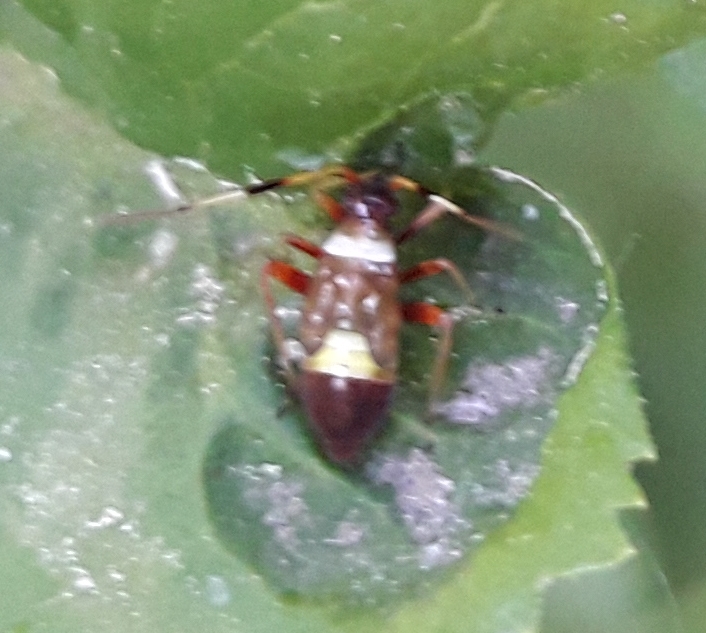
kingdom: Animalia
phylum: Arthropoda
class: Insecta
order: Hemiptera
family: Miridae
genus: Closterotomus
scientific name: Closterotomus biclavatus
